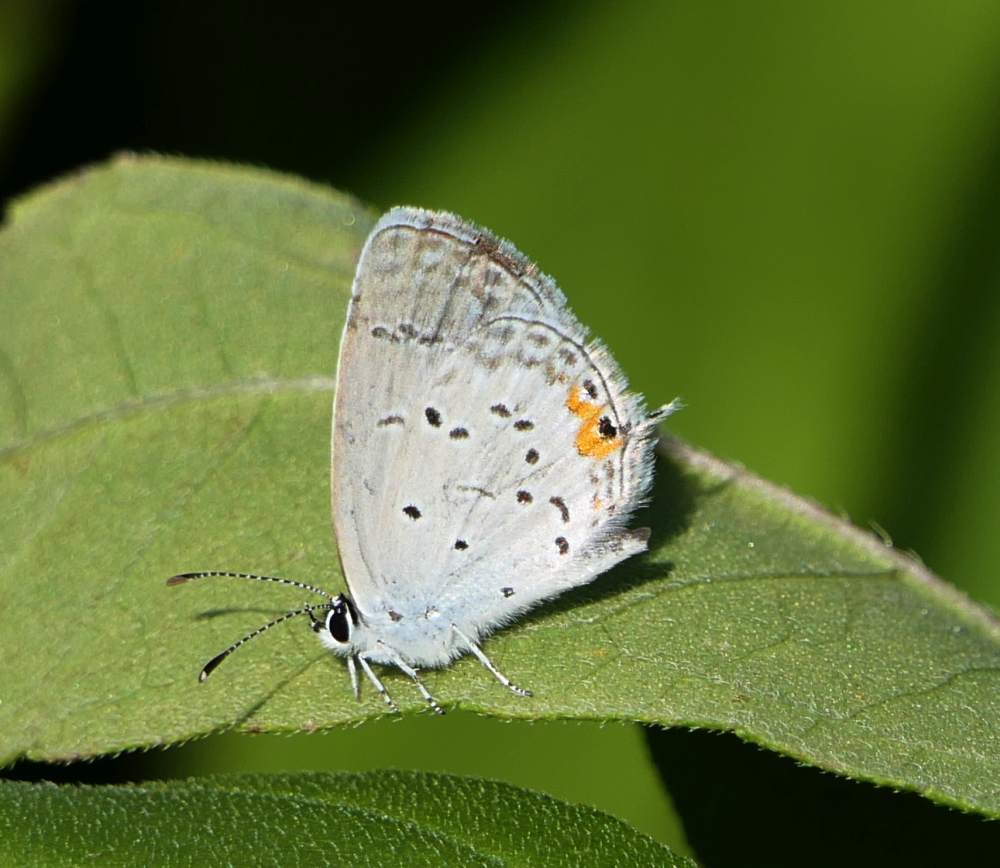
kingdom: Animalia
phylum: Arthropoda
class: Insecta
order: Lepidoptera
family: Lycaenidae
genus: Elkalyce
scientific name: Elkalyce comyntas
